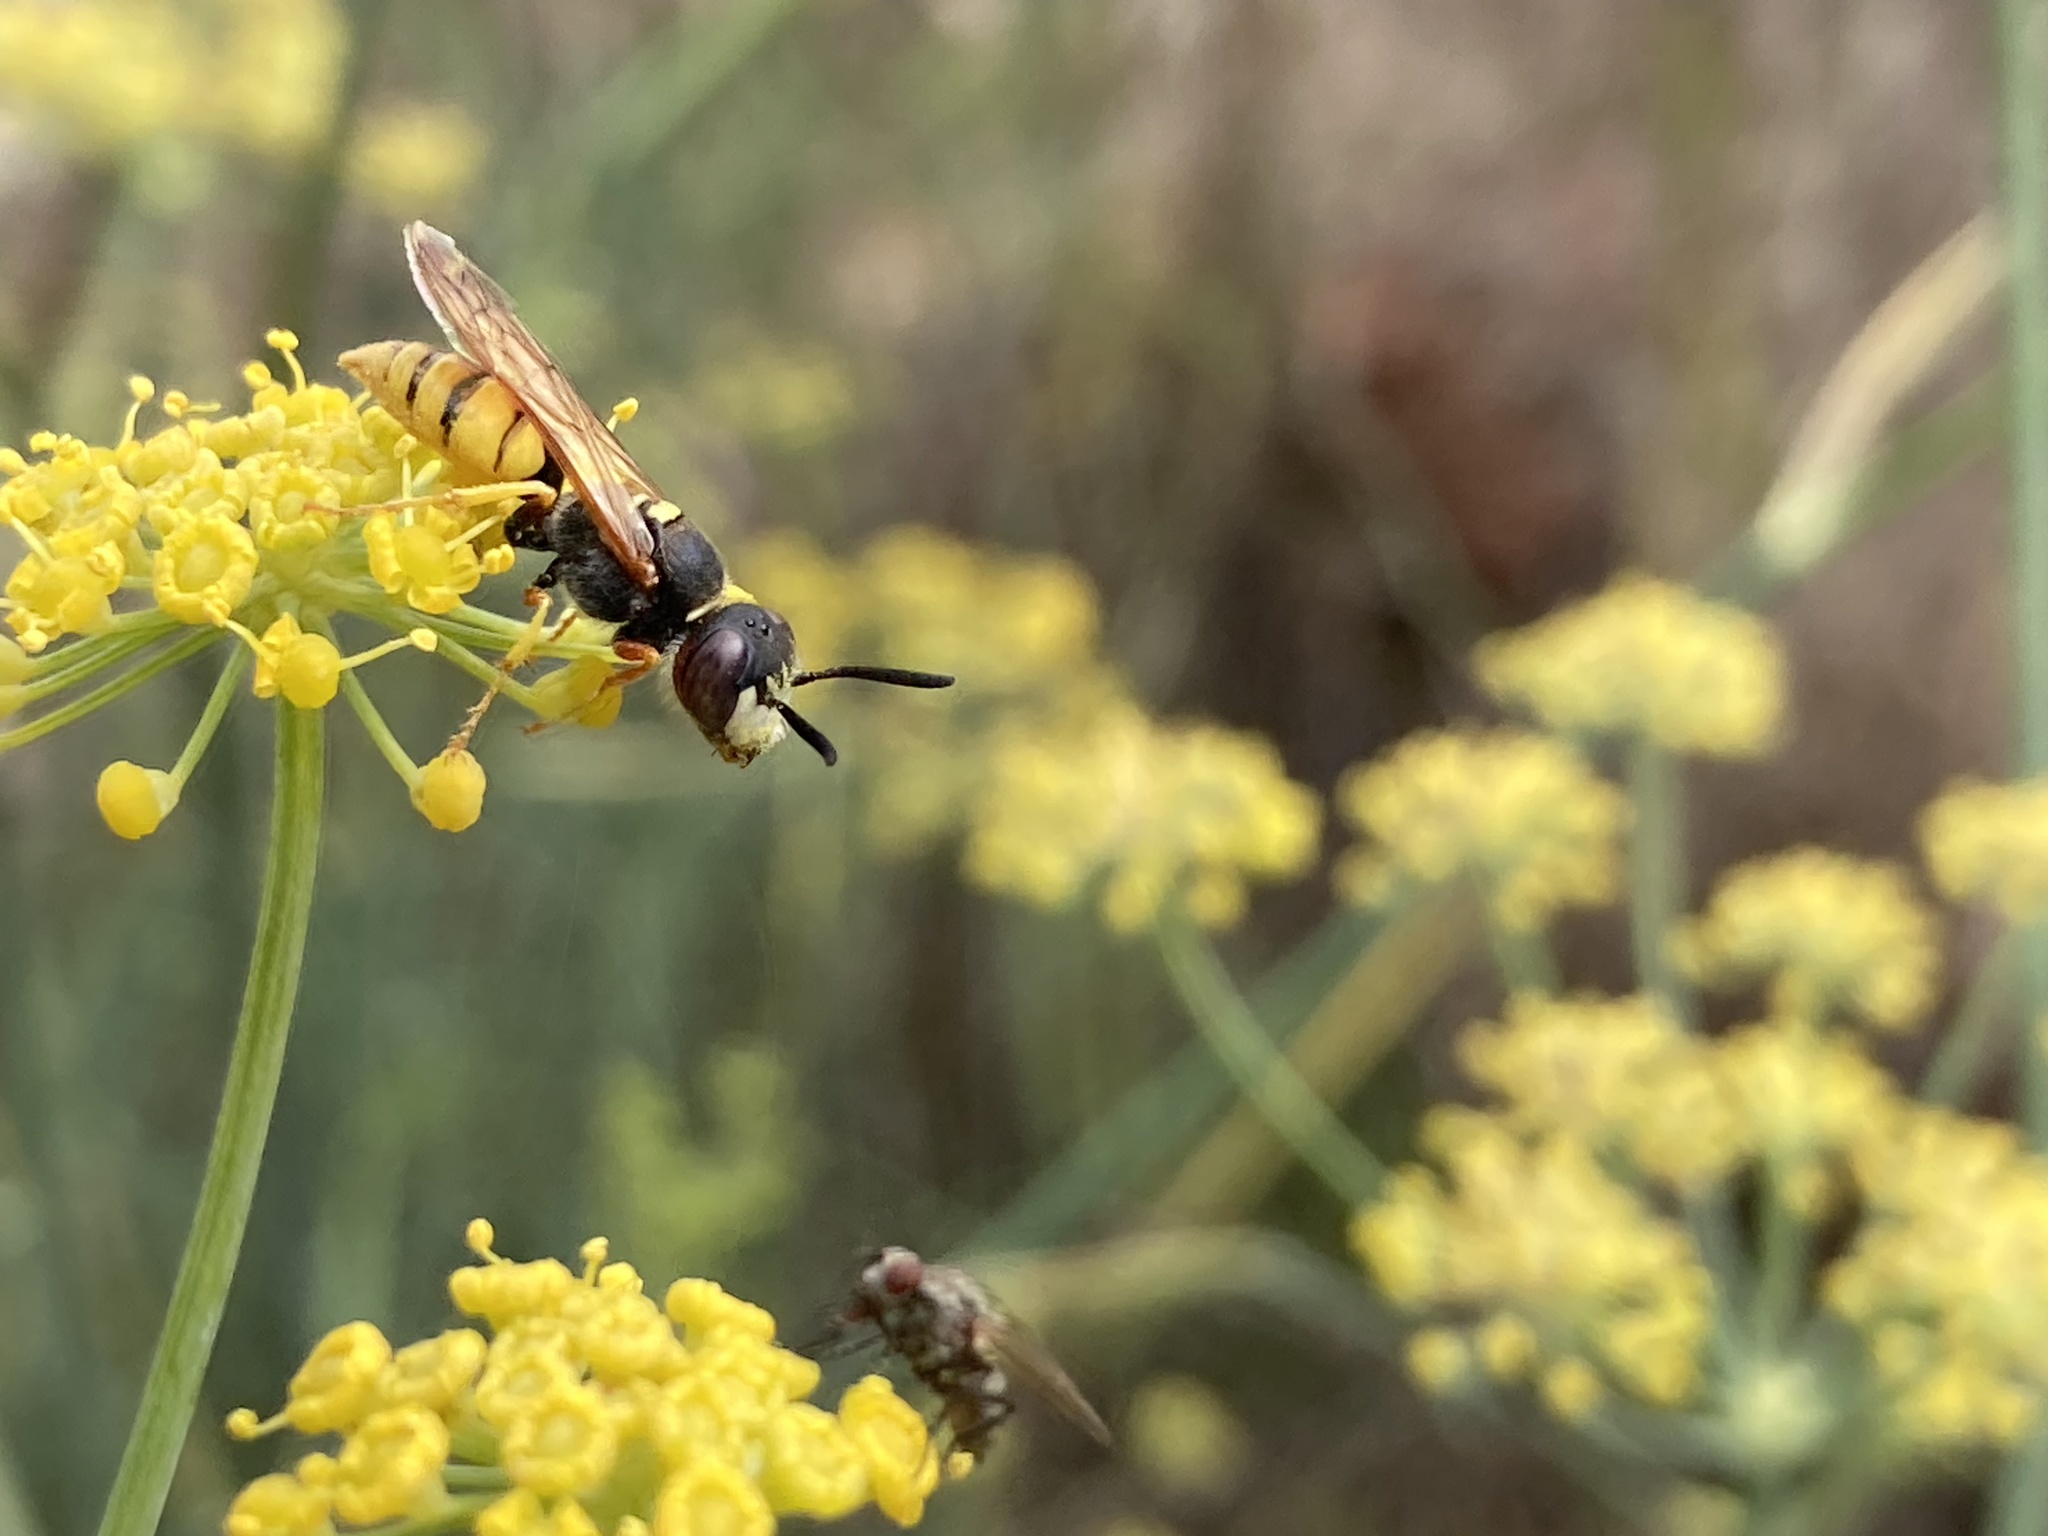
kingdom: Animalia
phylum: Arthropoda
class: Insecta
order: Hymenoptera
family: Crabronidae
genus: Philanthus
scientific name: Philanthus triangulum
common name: Bee wolf
